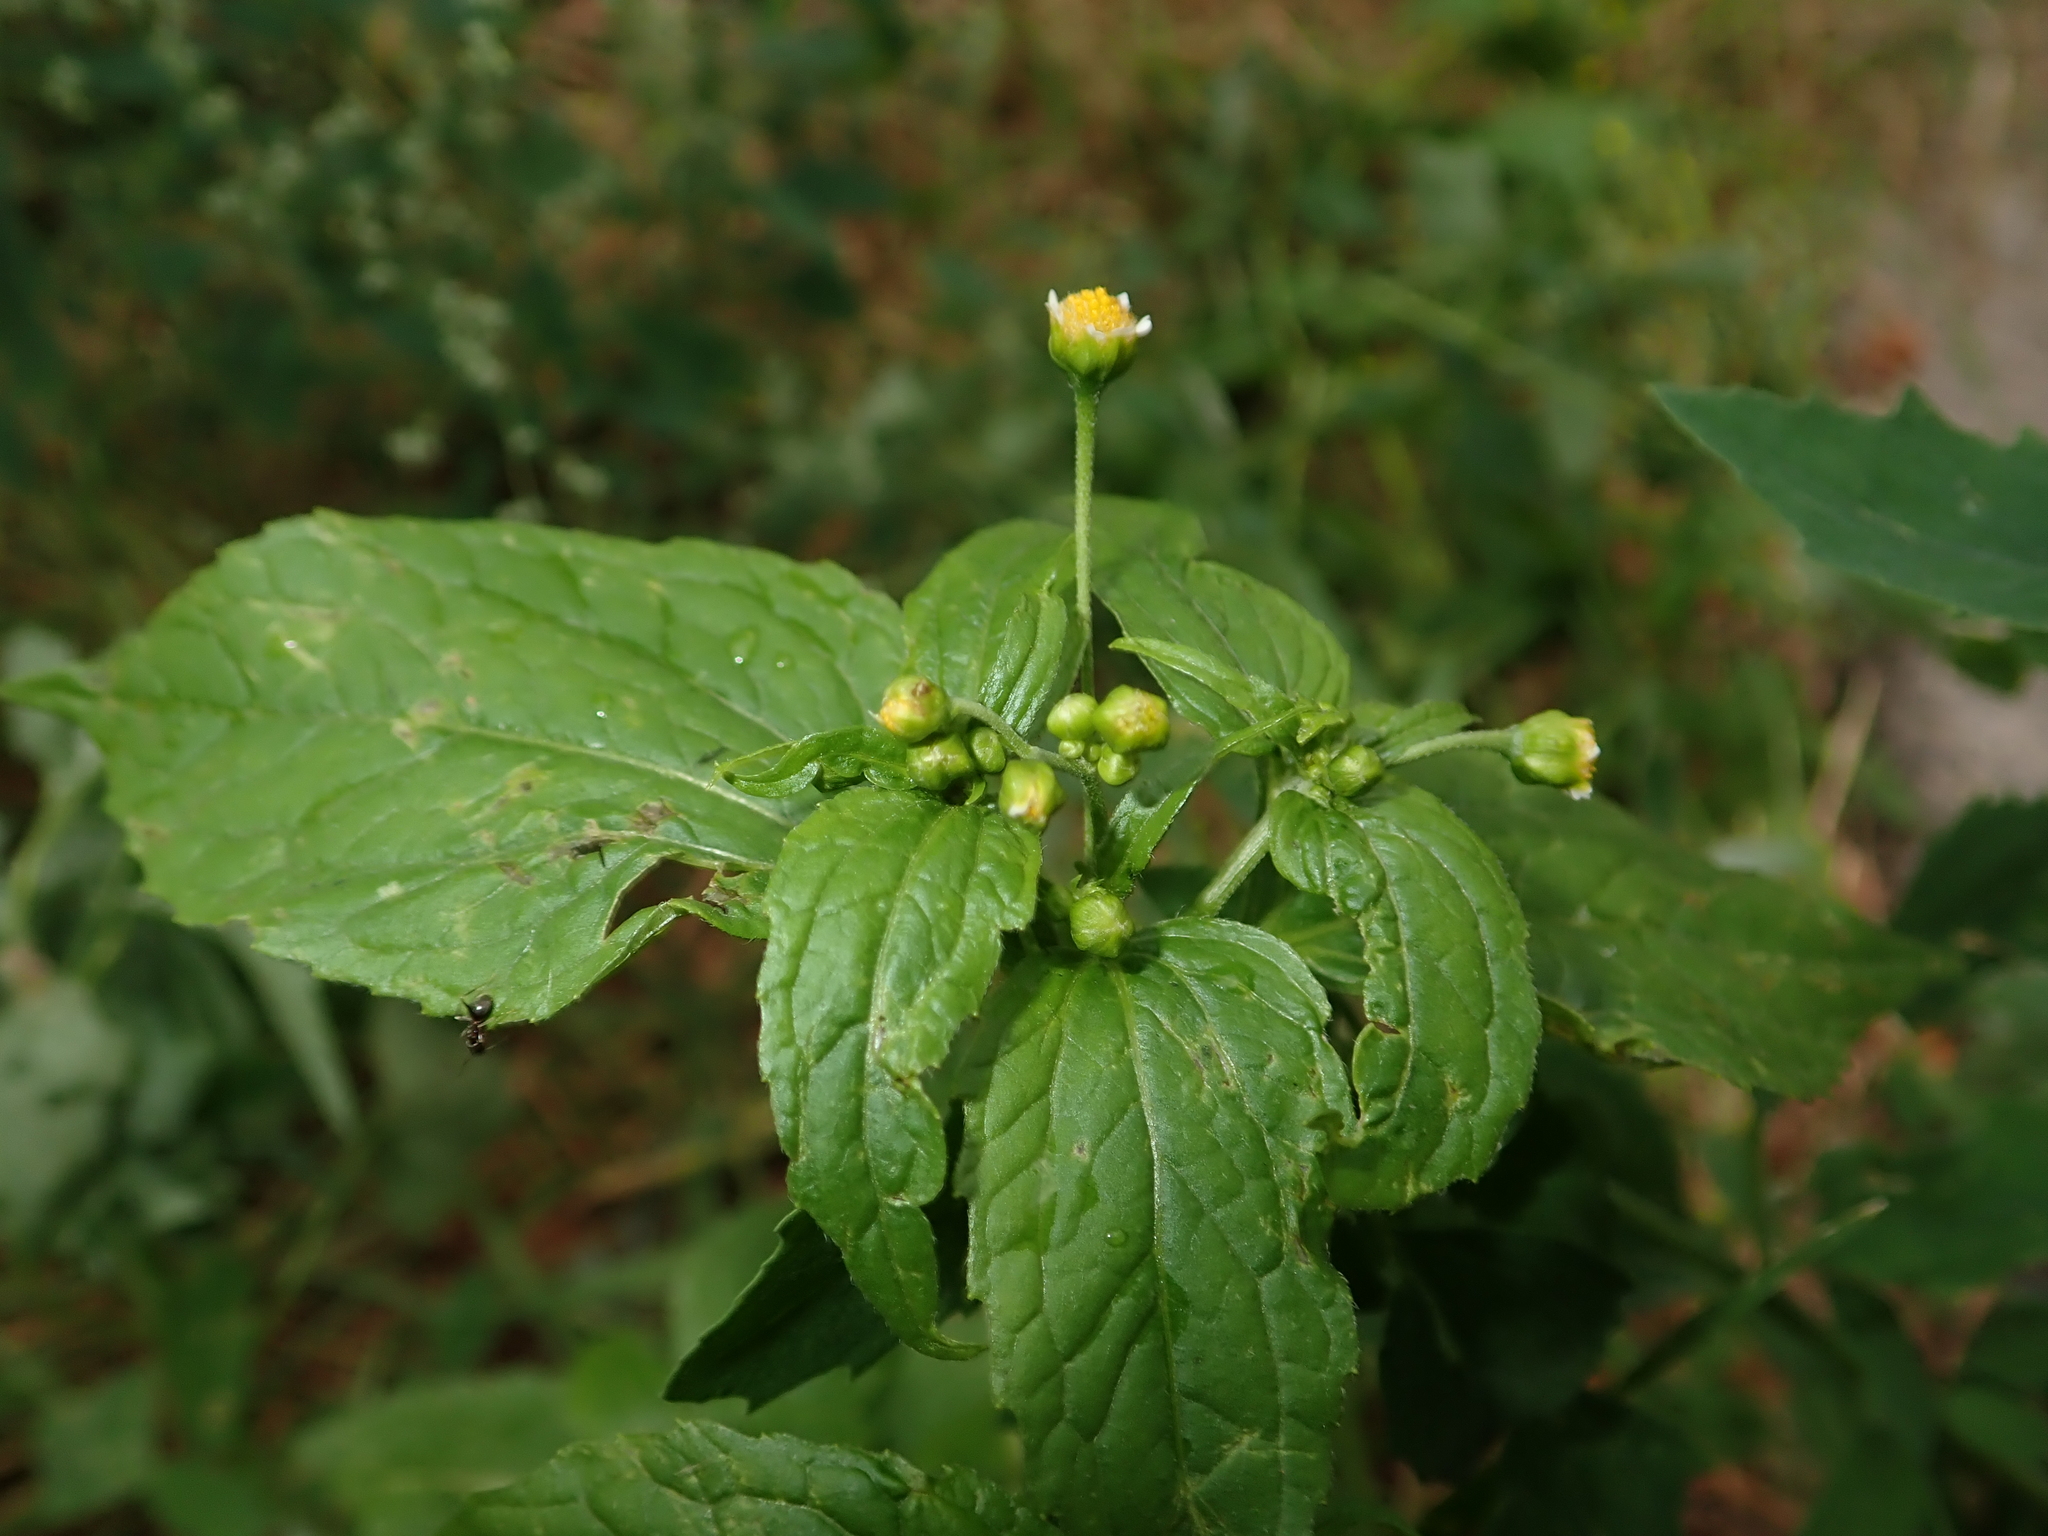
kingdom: Plantae
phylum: Tracheophyta
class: Magnoliopsida
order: Asterales
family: Asteraceae
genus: Galinsoga
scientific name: Galinsoga parviflora
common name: Gallant soldier
